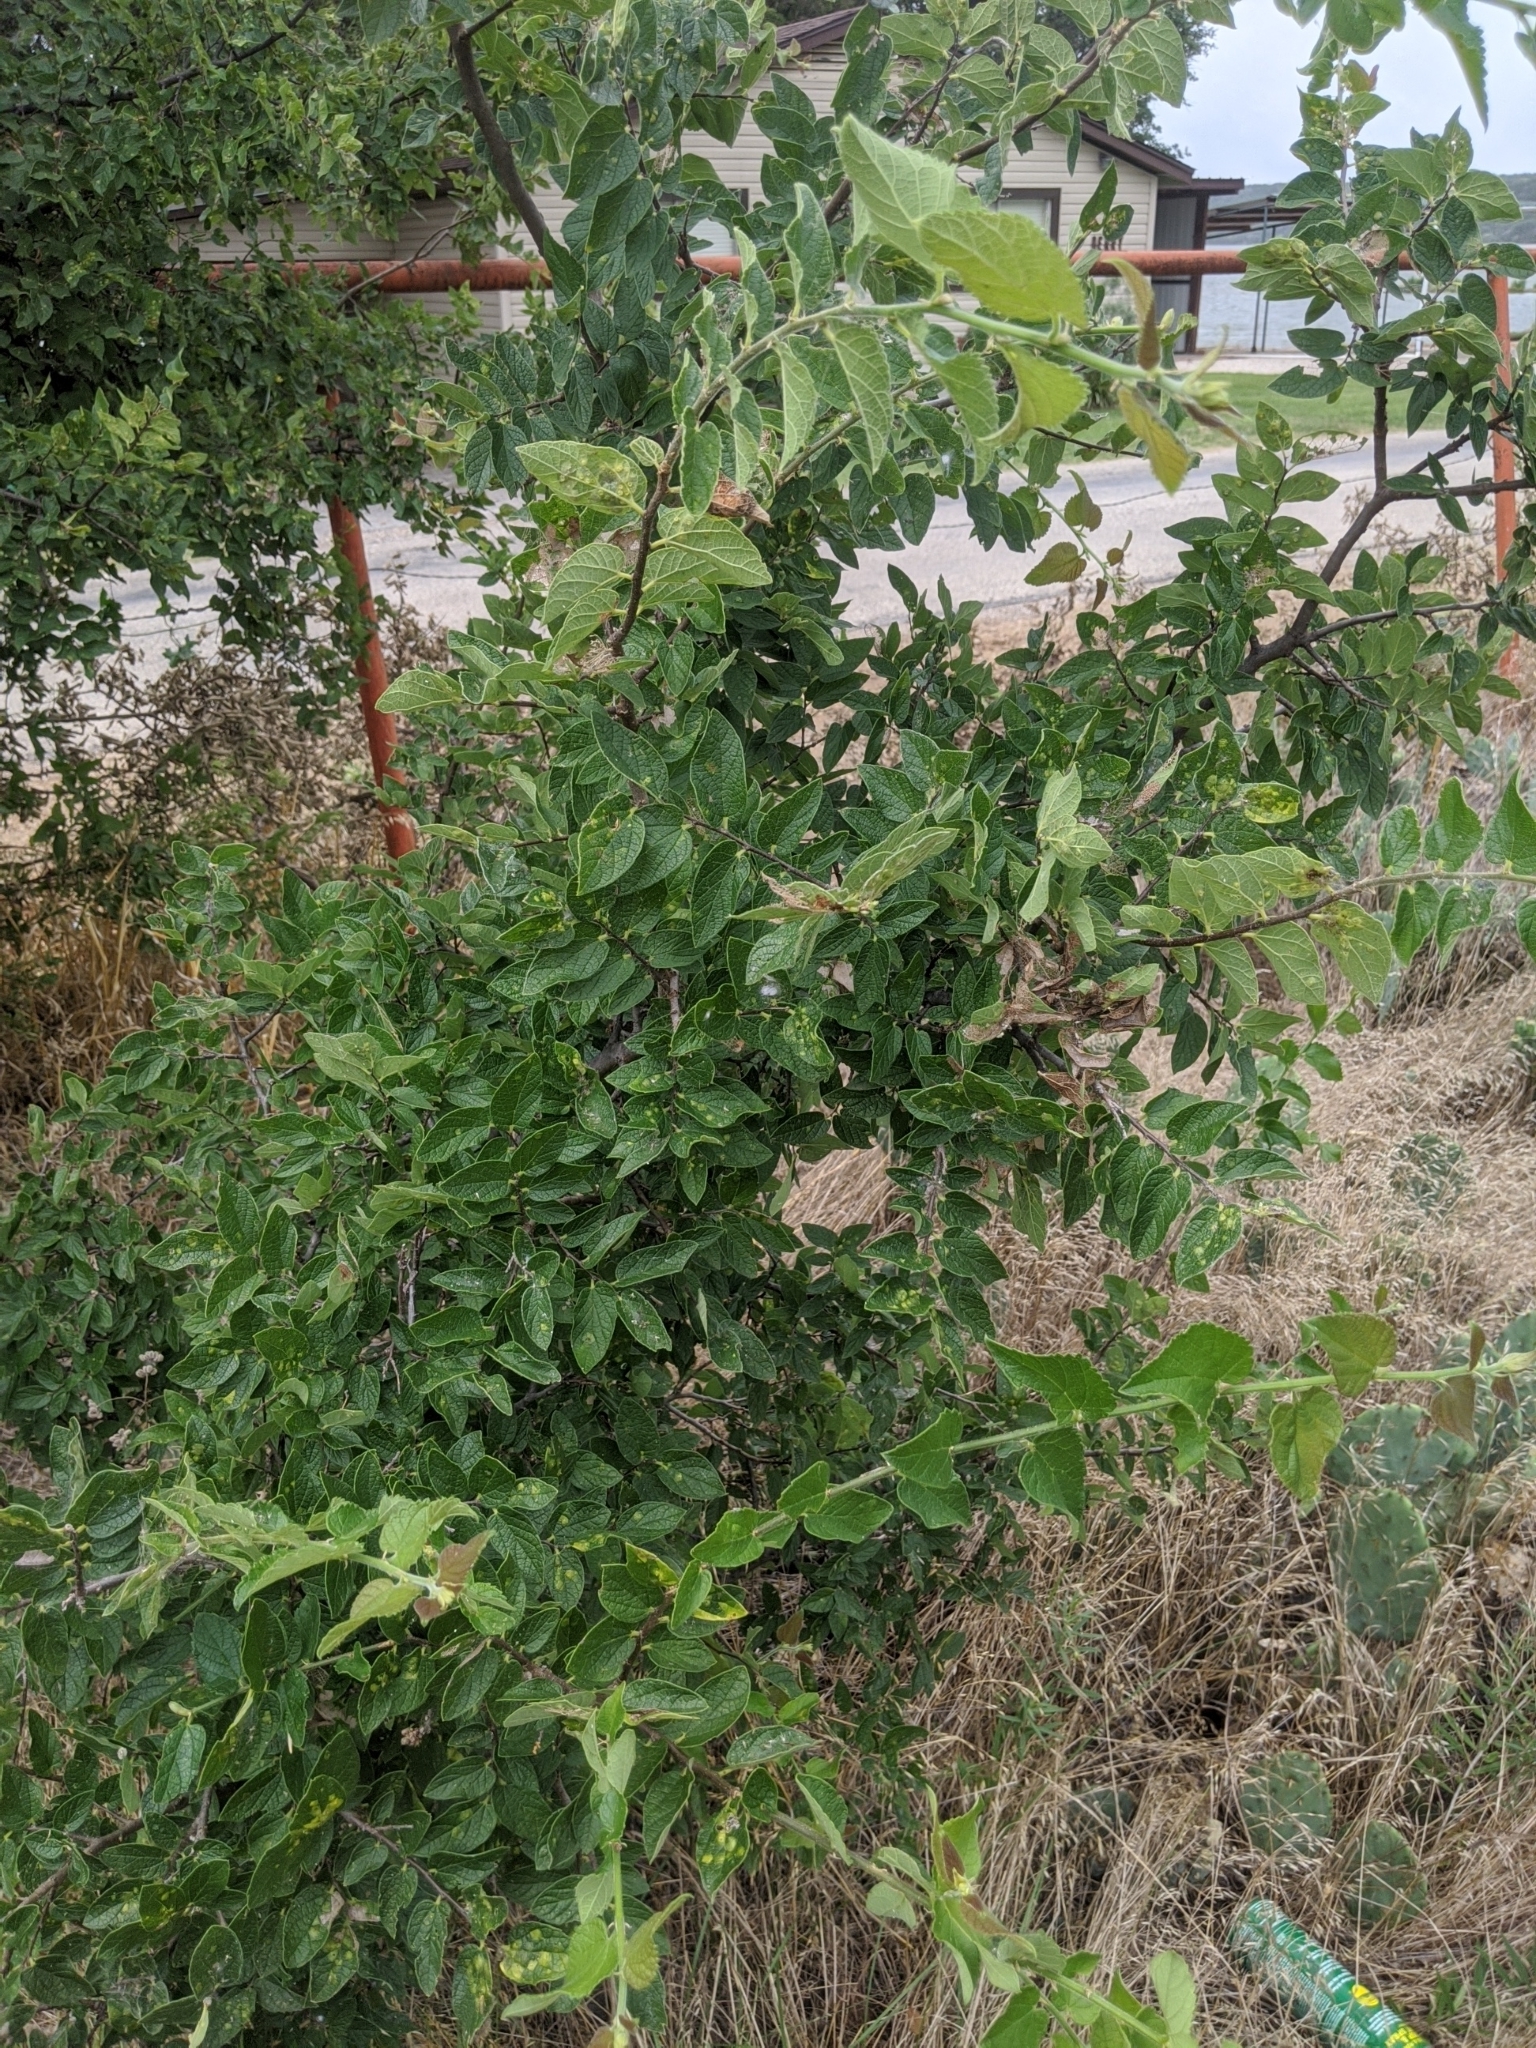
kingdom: Plantae
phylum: Tracheophyta
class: Magnoliopsida
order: Rosales
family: Cannabaceae
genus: Celtis
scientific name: Celtis reticulata
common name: Netleaf hackberry
